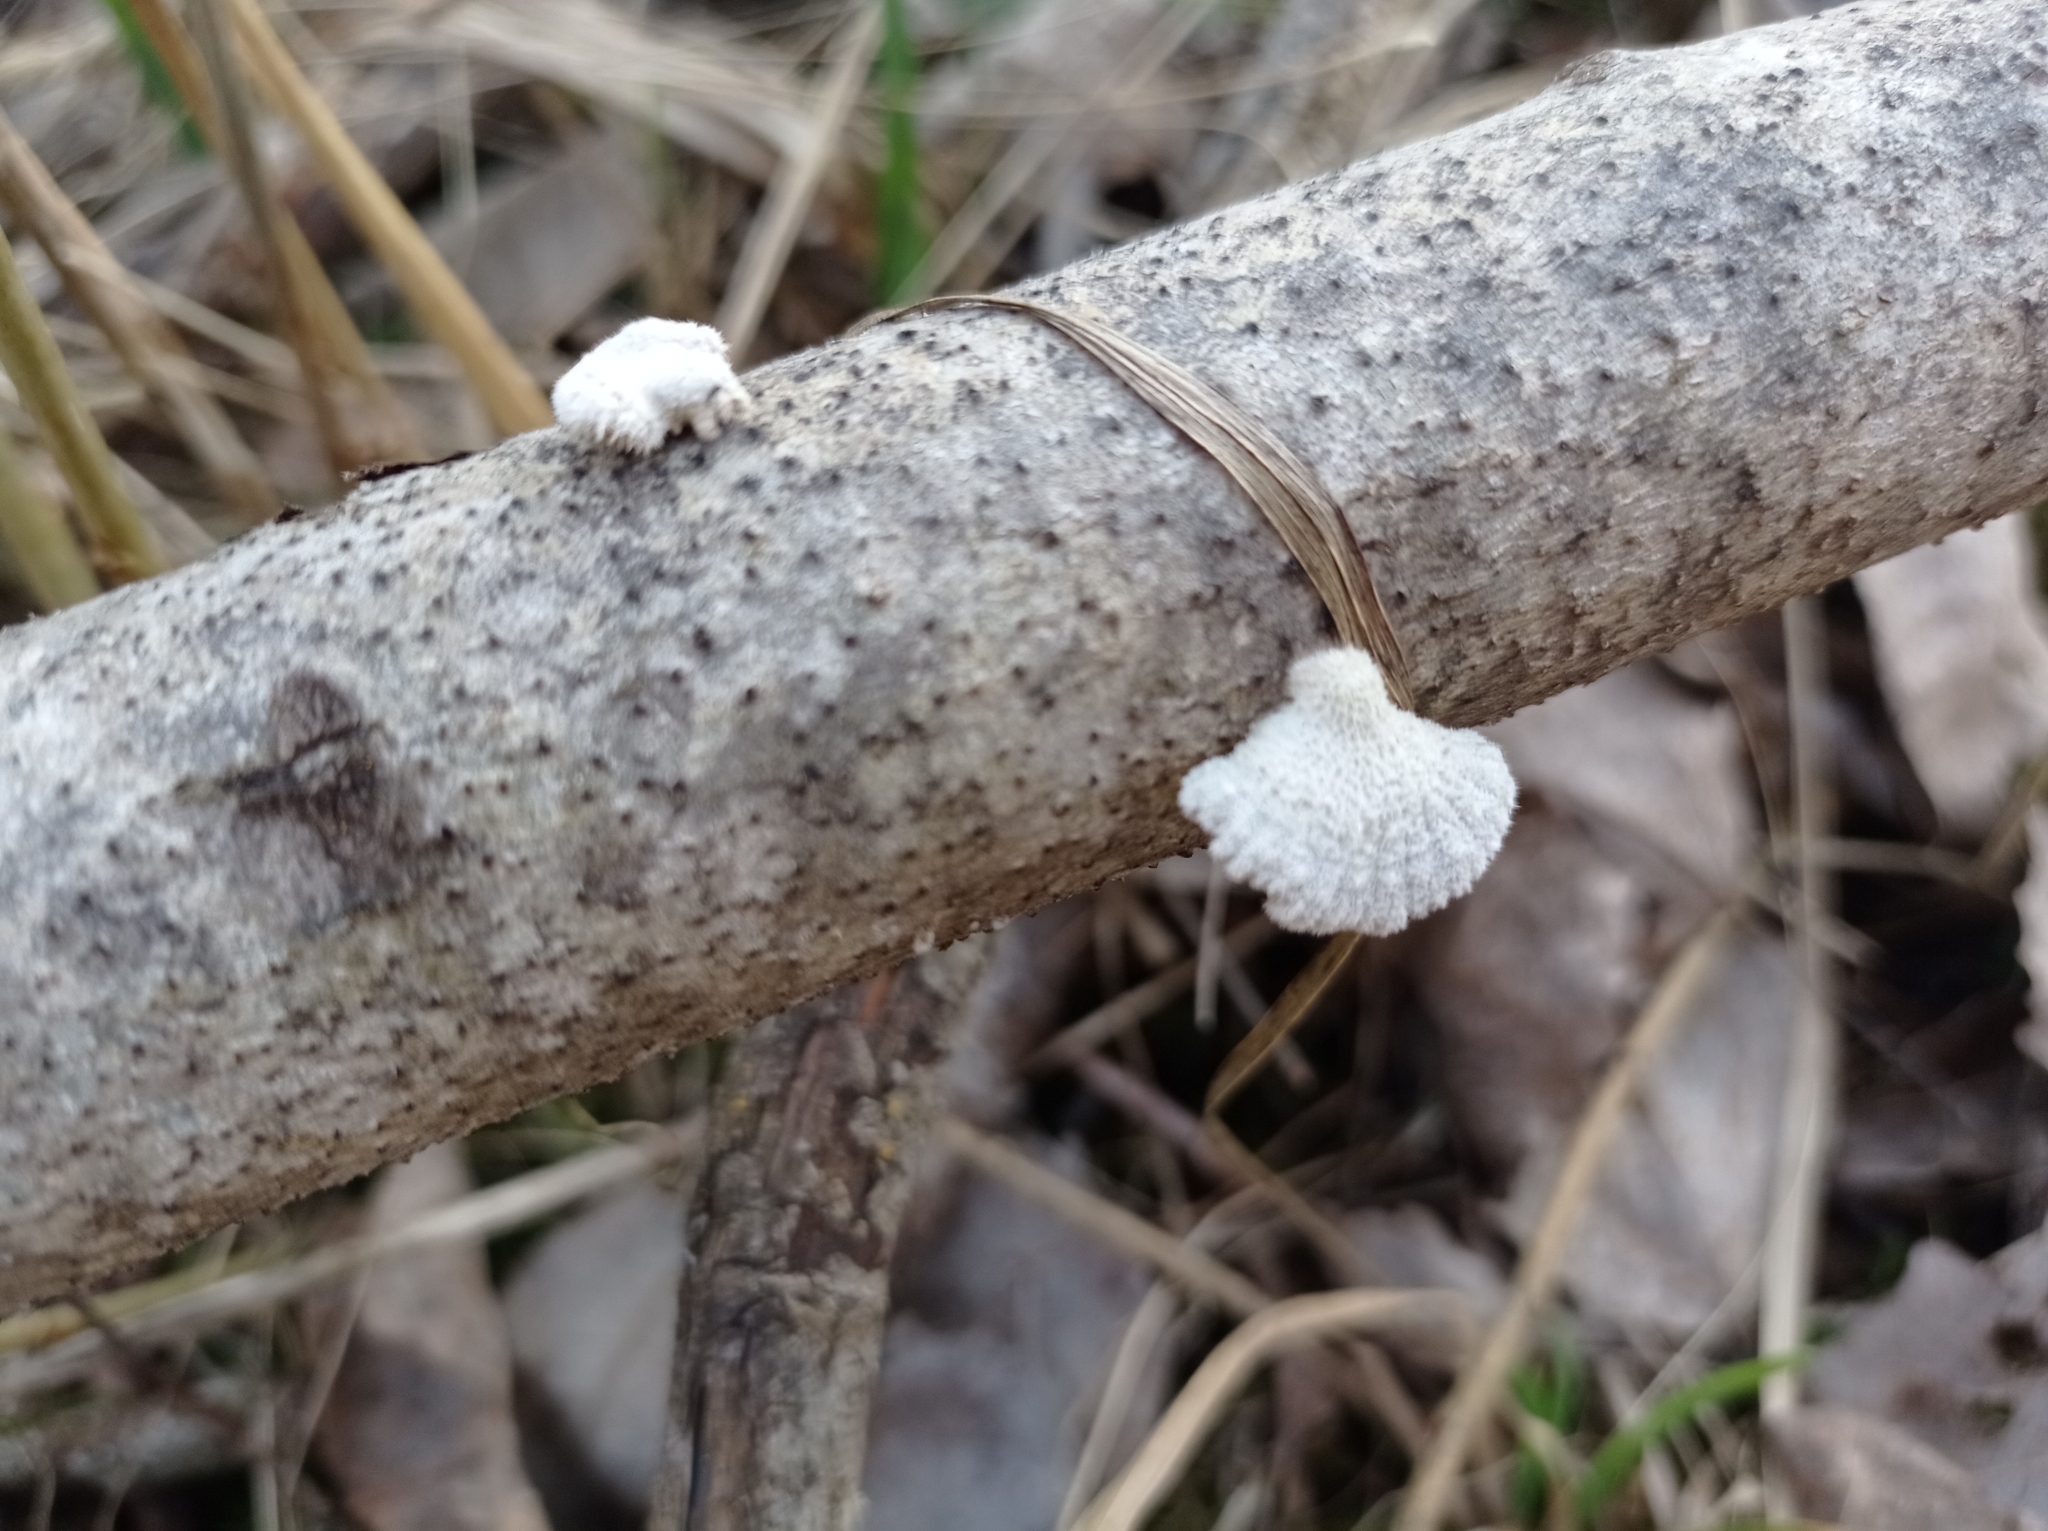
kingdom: Fungi
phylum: Basidiomycota
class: Agaricomycetes
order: Agaricales
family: Schizophyllaceae
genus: Schizophyllum
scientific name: Schizophyllum commune
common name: Common porecrust
